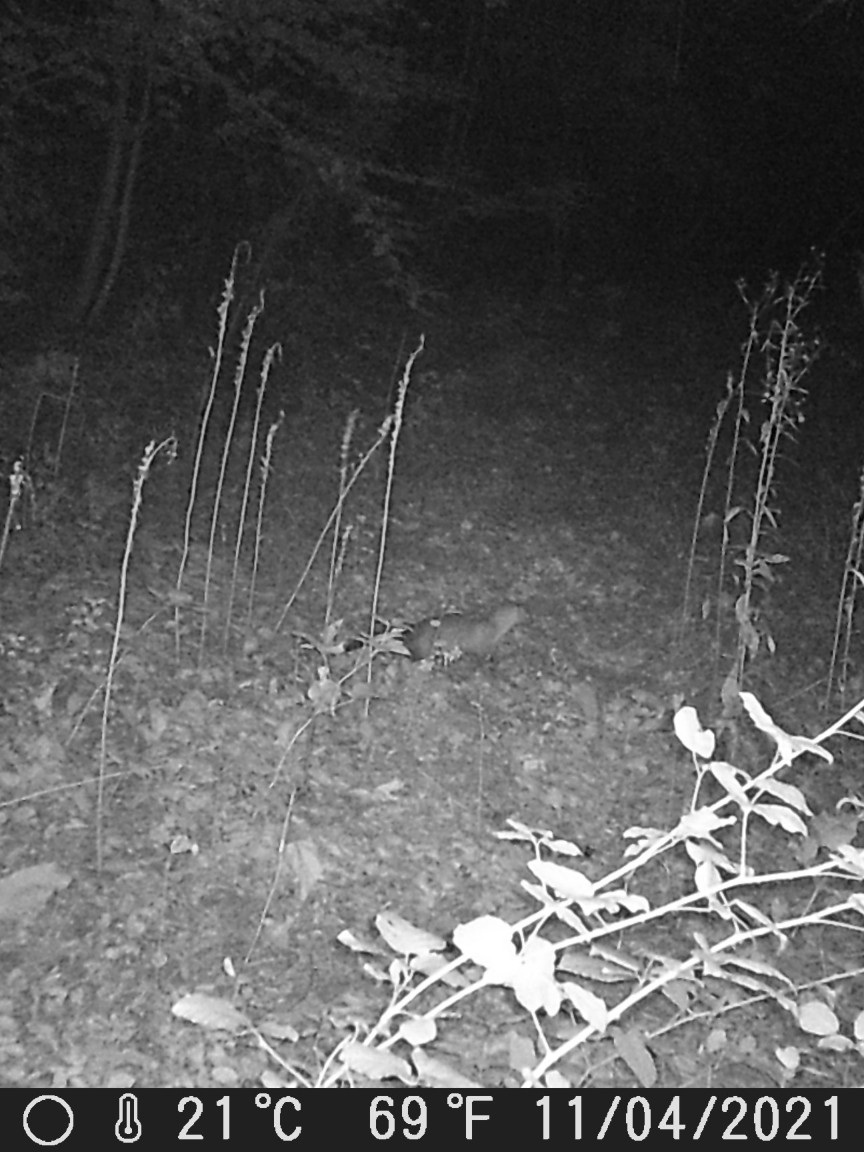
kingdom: Animalia
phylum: Chordata
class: Mammalia
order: Carnivora
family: Mustelidae
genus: Martes
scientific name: Martes foina
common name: Beech marten
